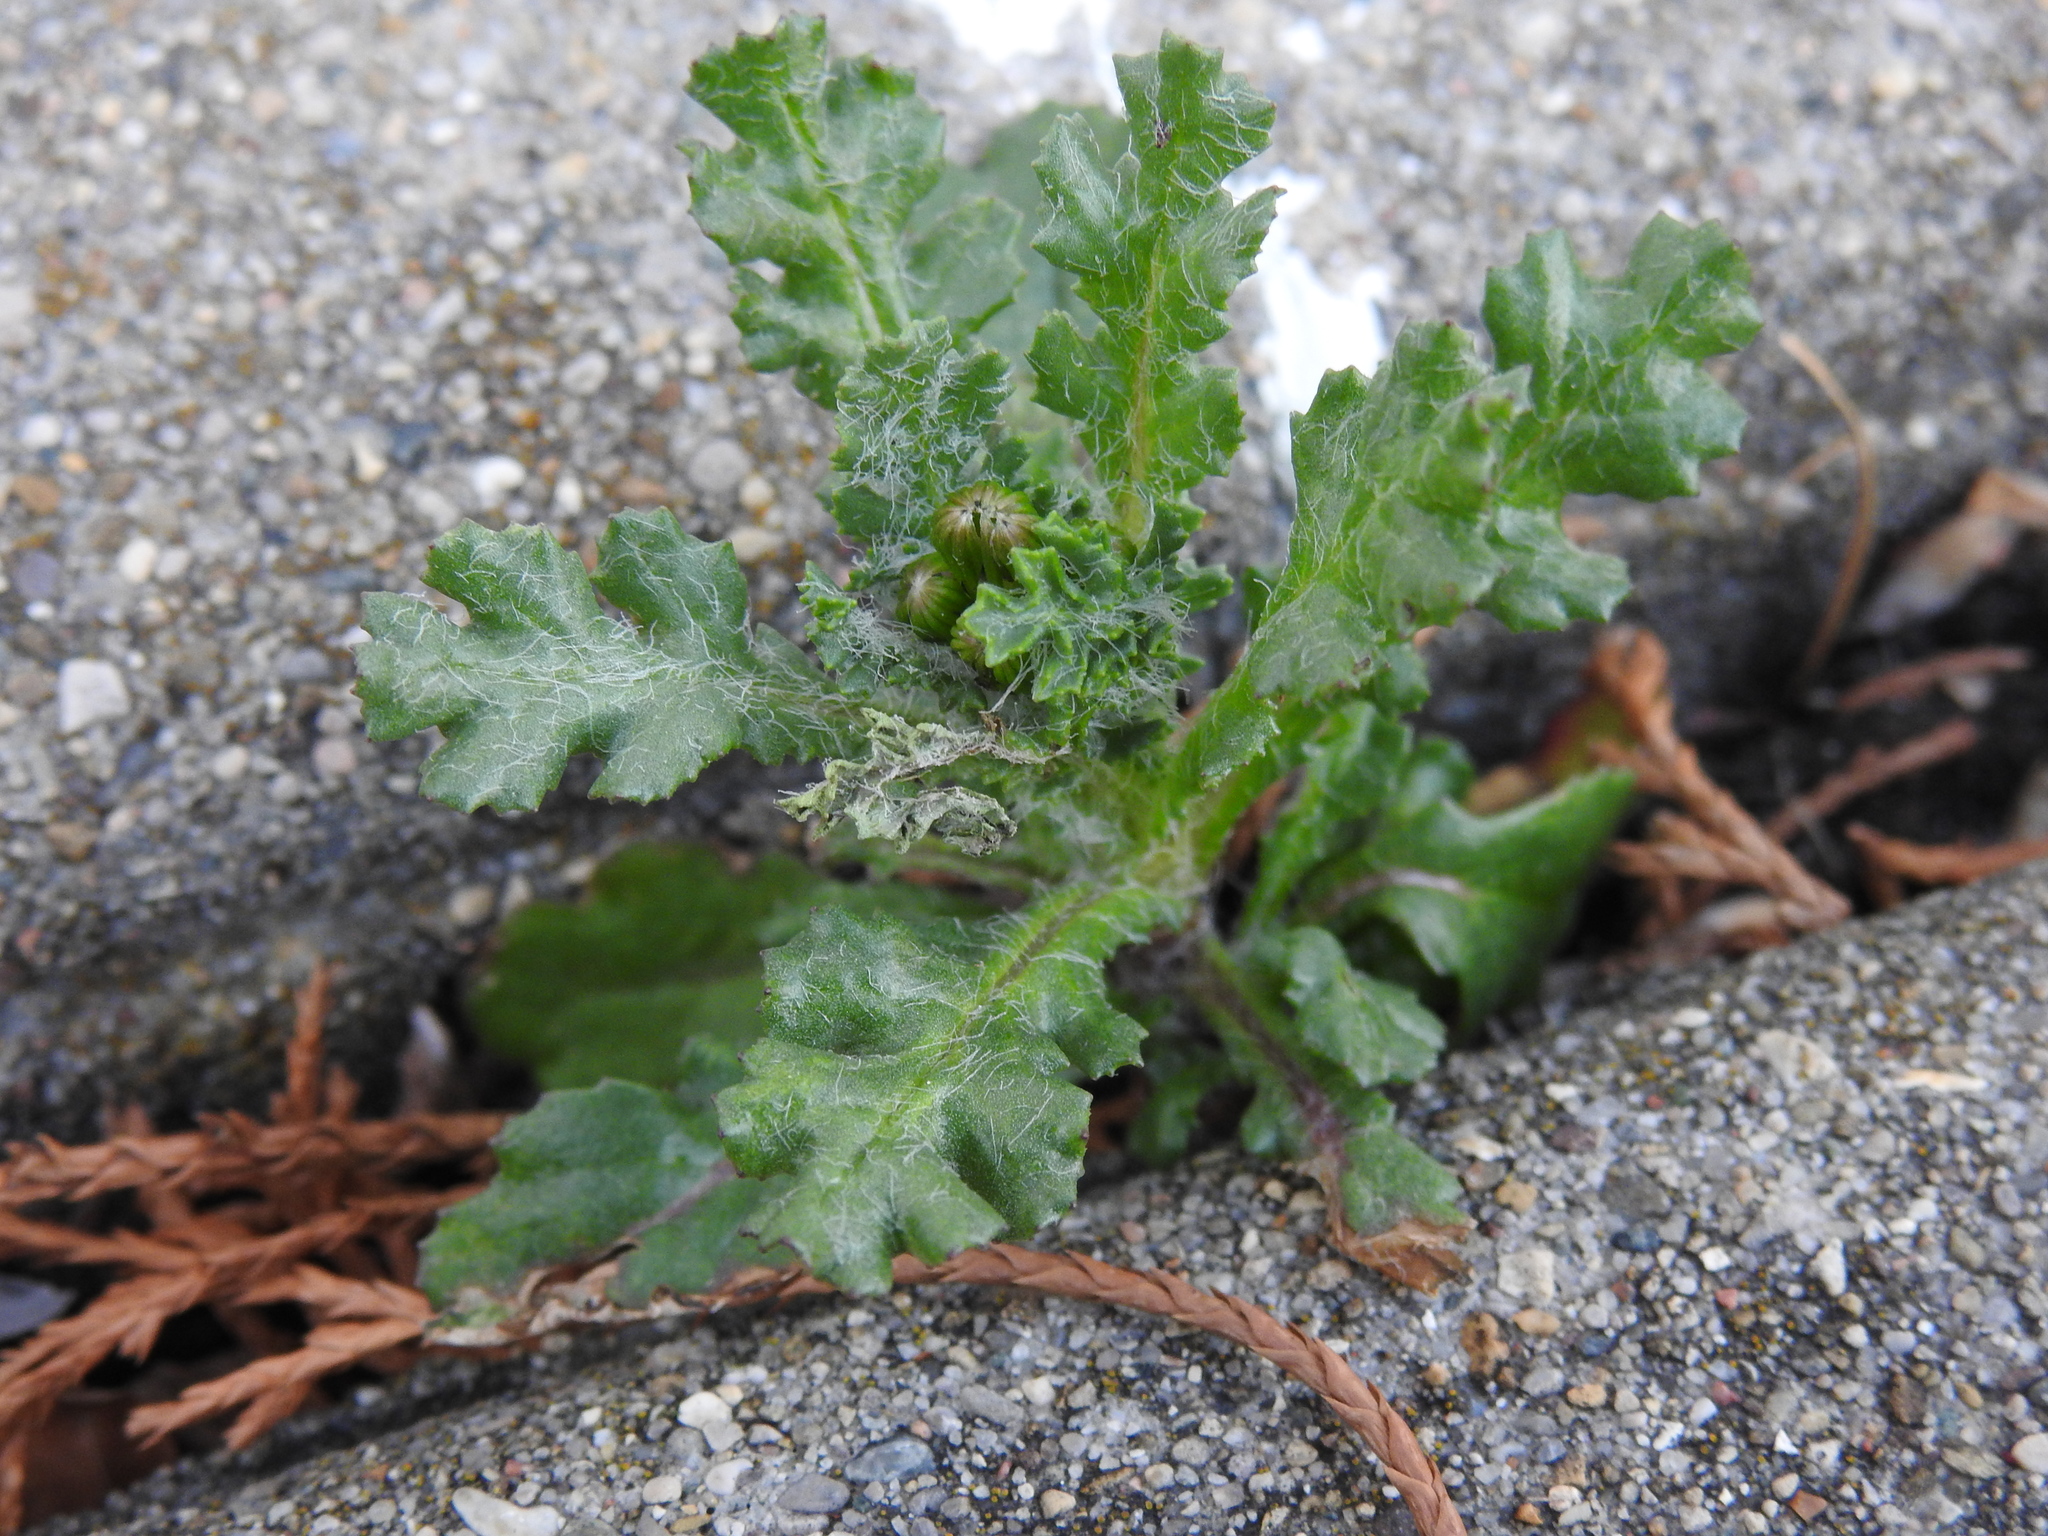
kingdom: Plantae
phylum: Tracheophyta
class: Magnoliopsida
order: Asterales
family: Asteraceae
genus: Senecio
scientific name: Senecio vulgaris
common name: Old-man-in-the-spring
